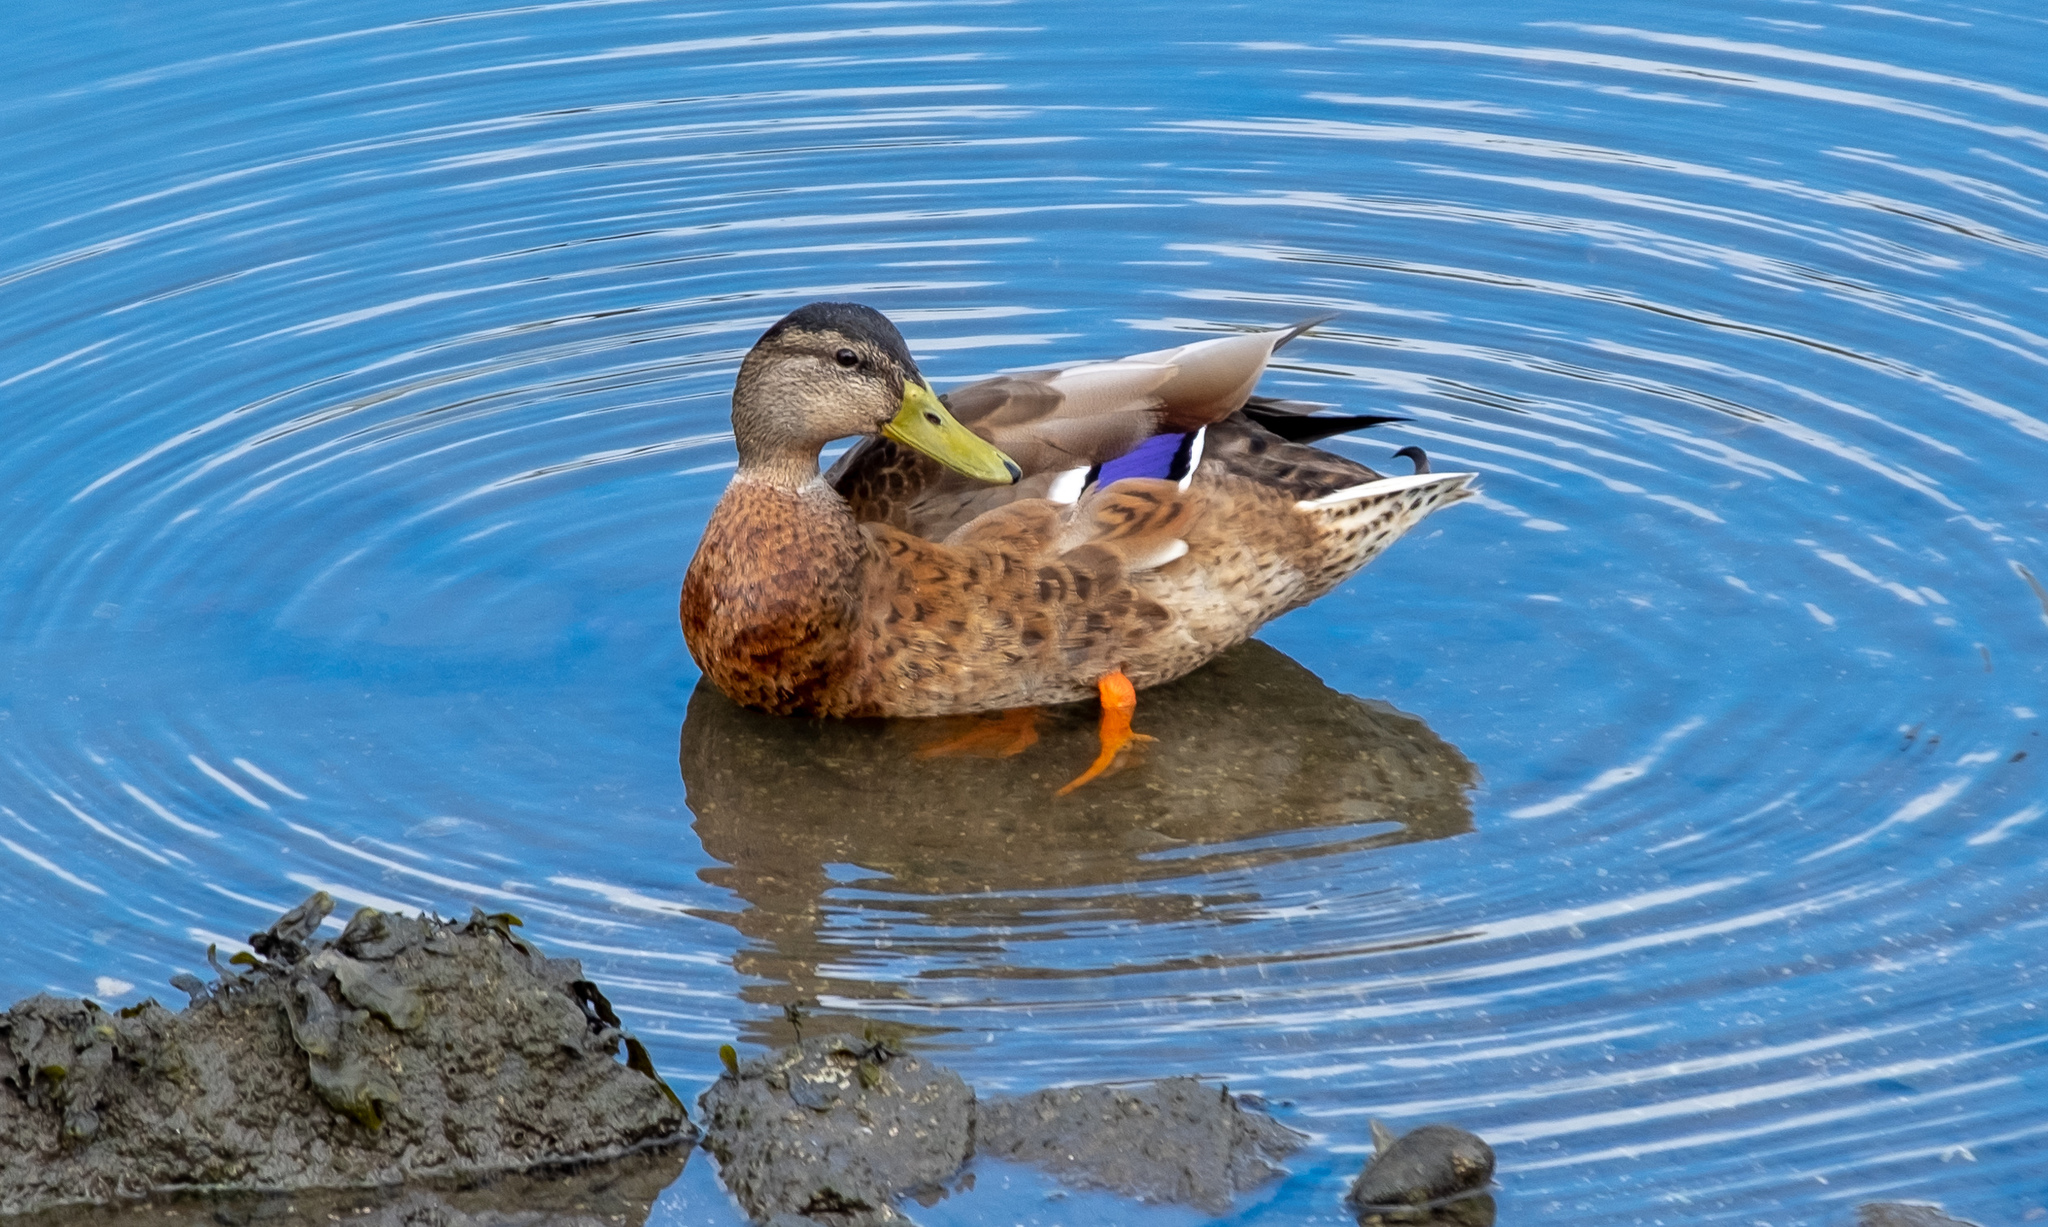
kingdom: Animalia
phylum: Chordata
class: Aves
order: Anseriformes
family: Anatidae
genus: Anas
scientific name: Anas platyrhynchos
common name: Mallard
